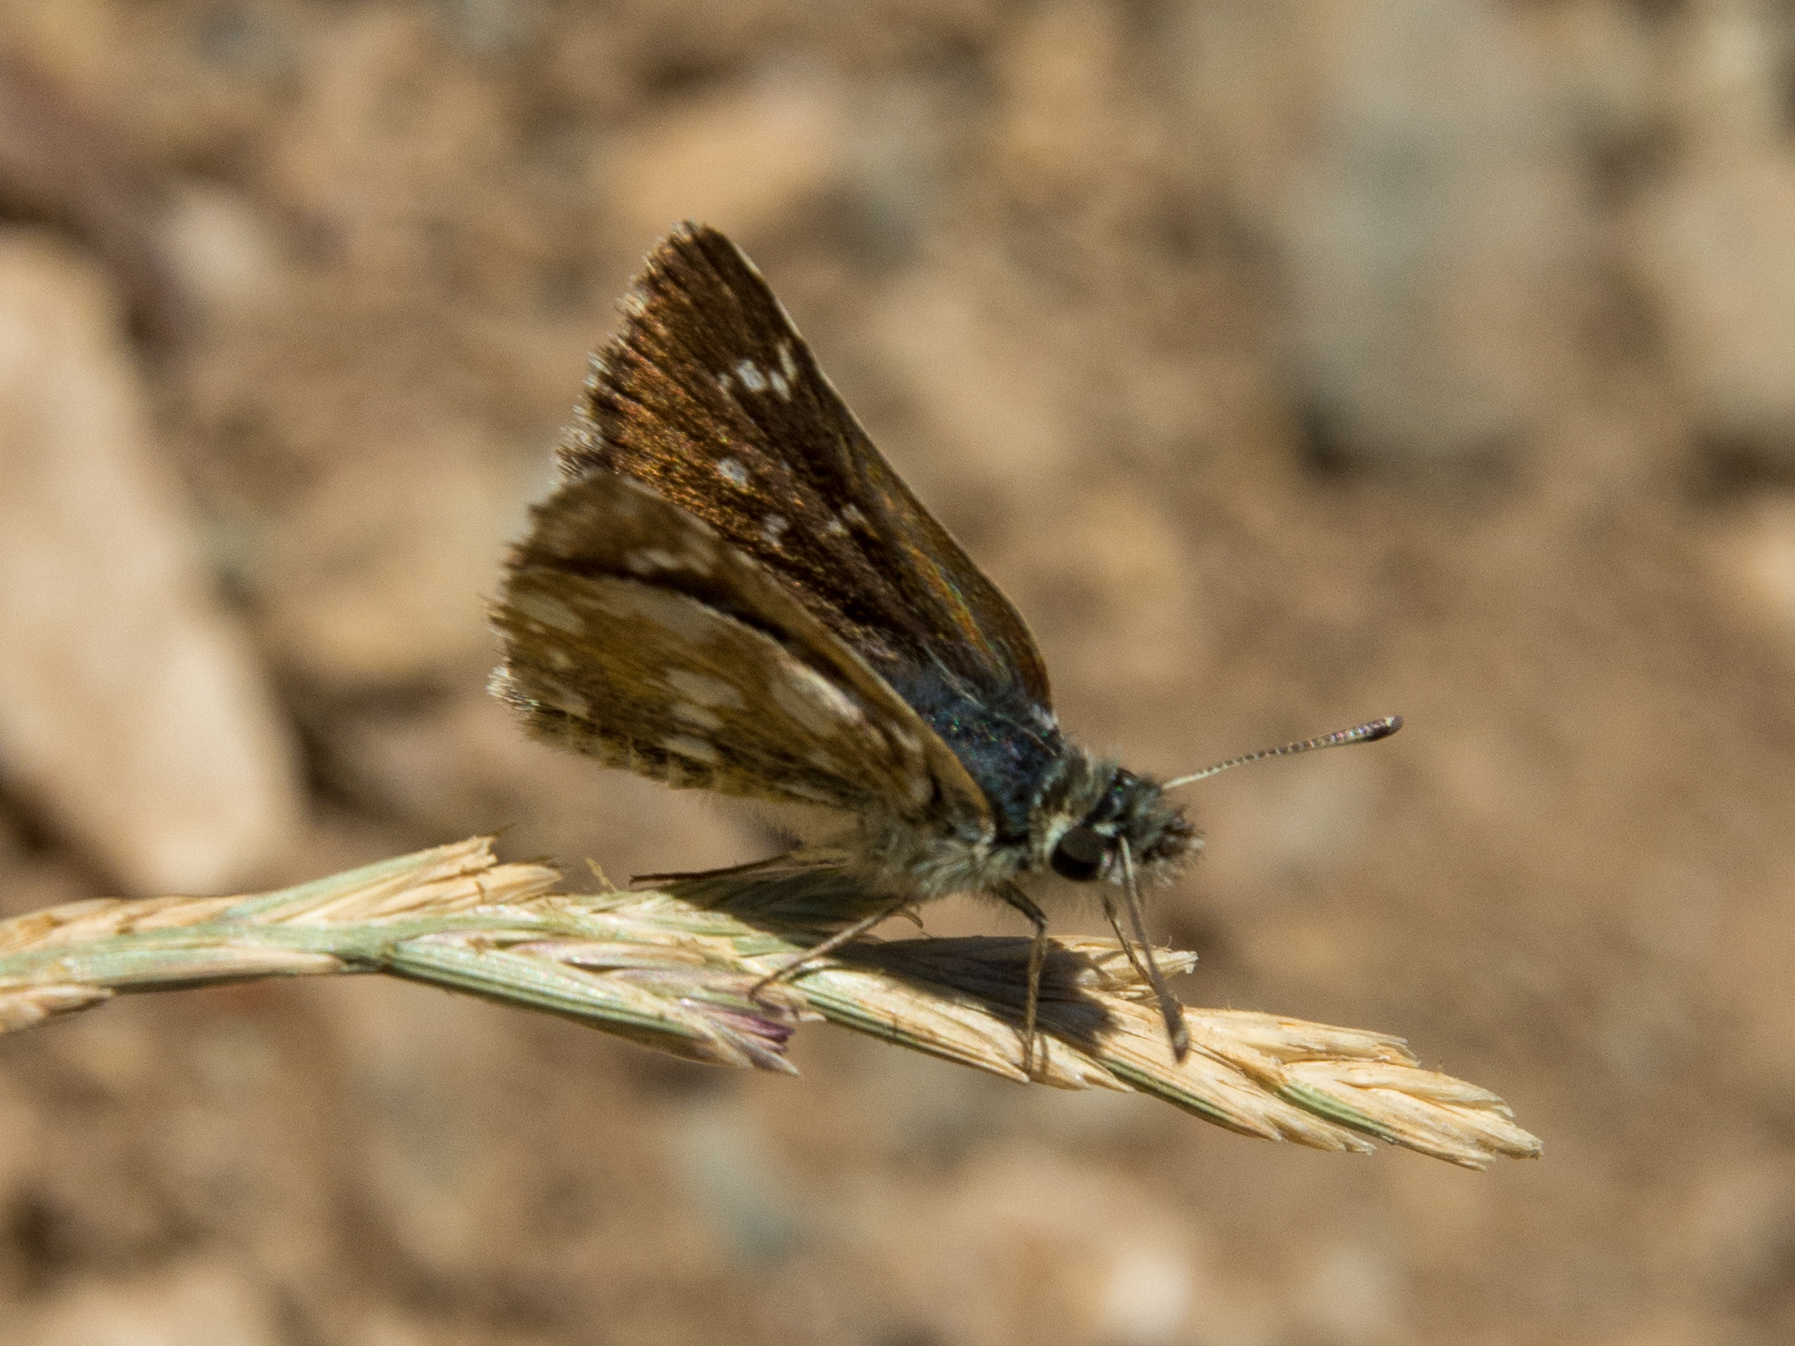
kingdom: Animalia
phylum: Arthropoda
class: Insecta
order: Lepidoptera
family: Hesperiidae
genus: Spialia
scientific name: Spialia sertorius
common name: Red underwing skipper
